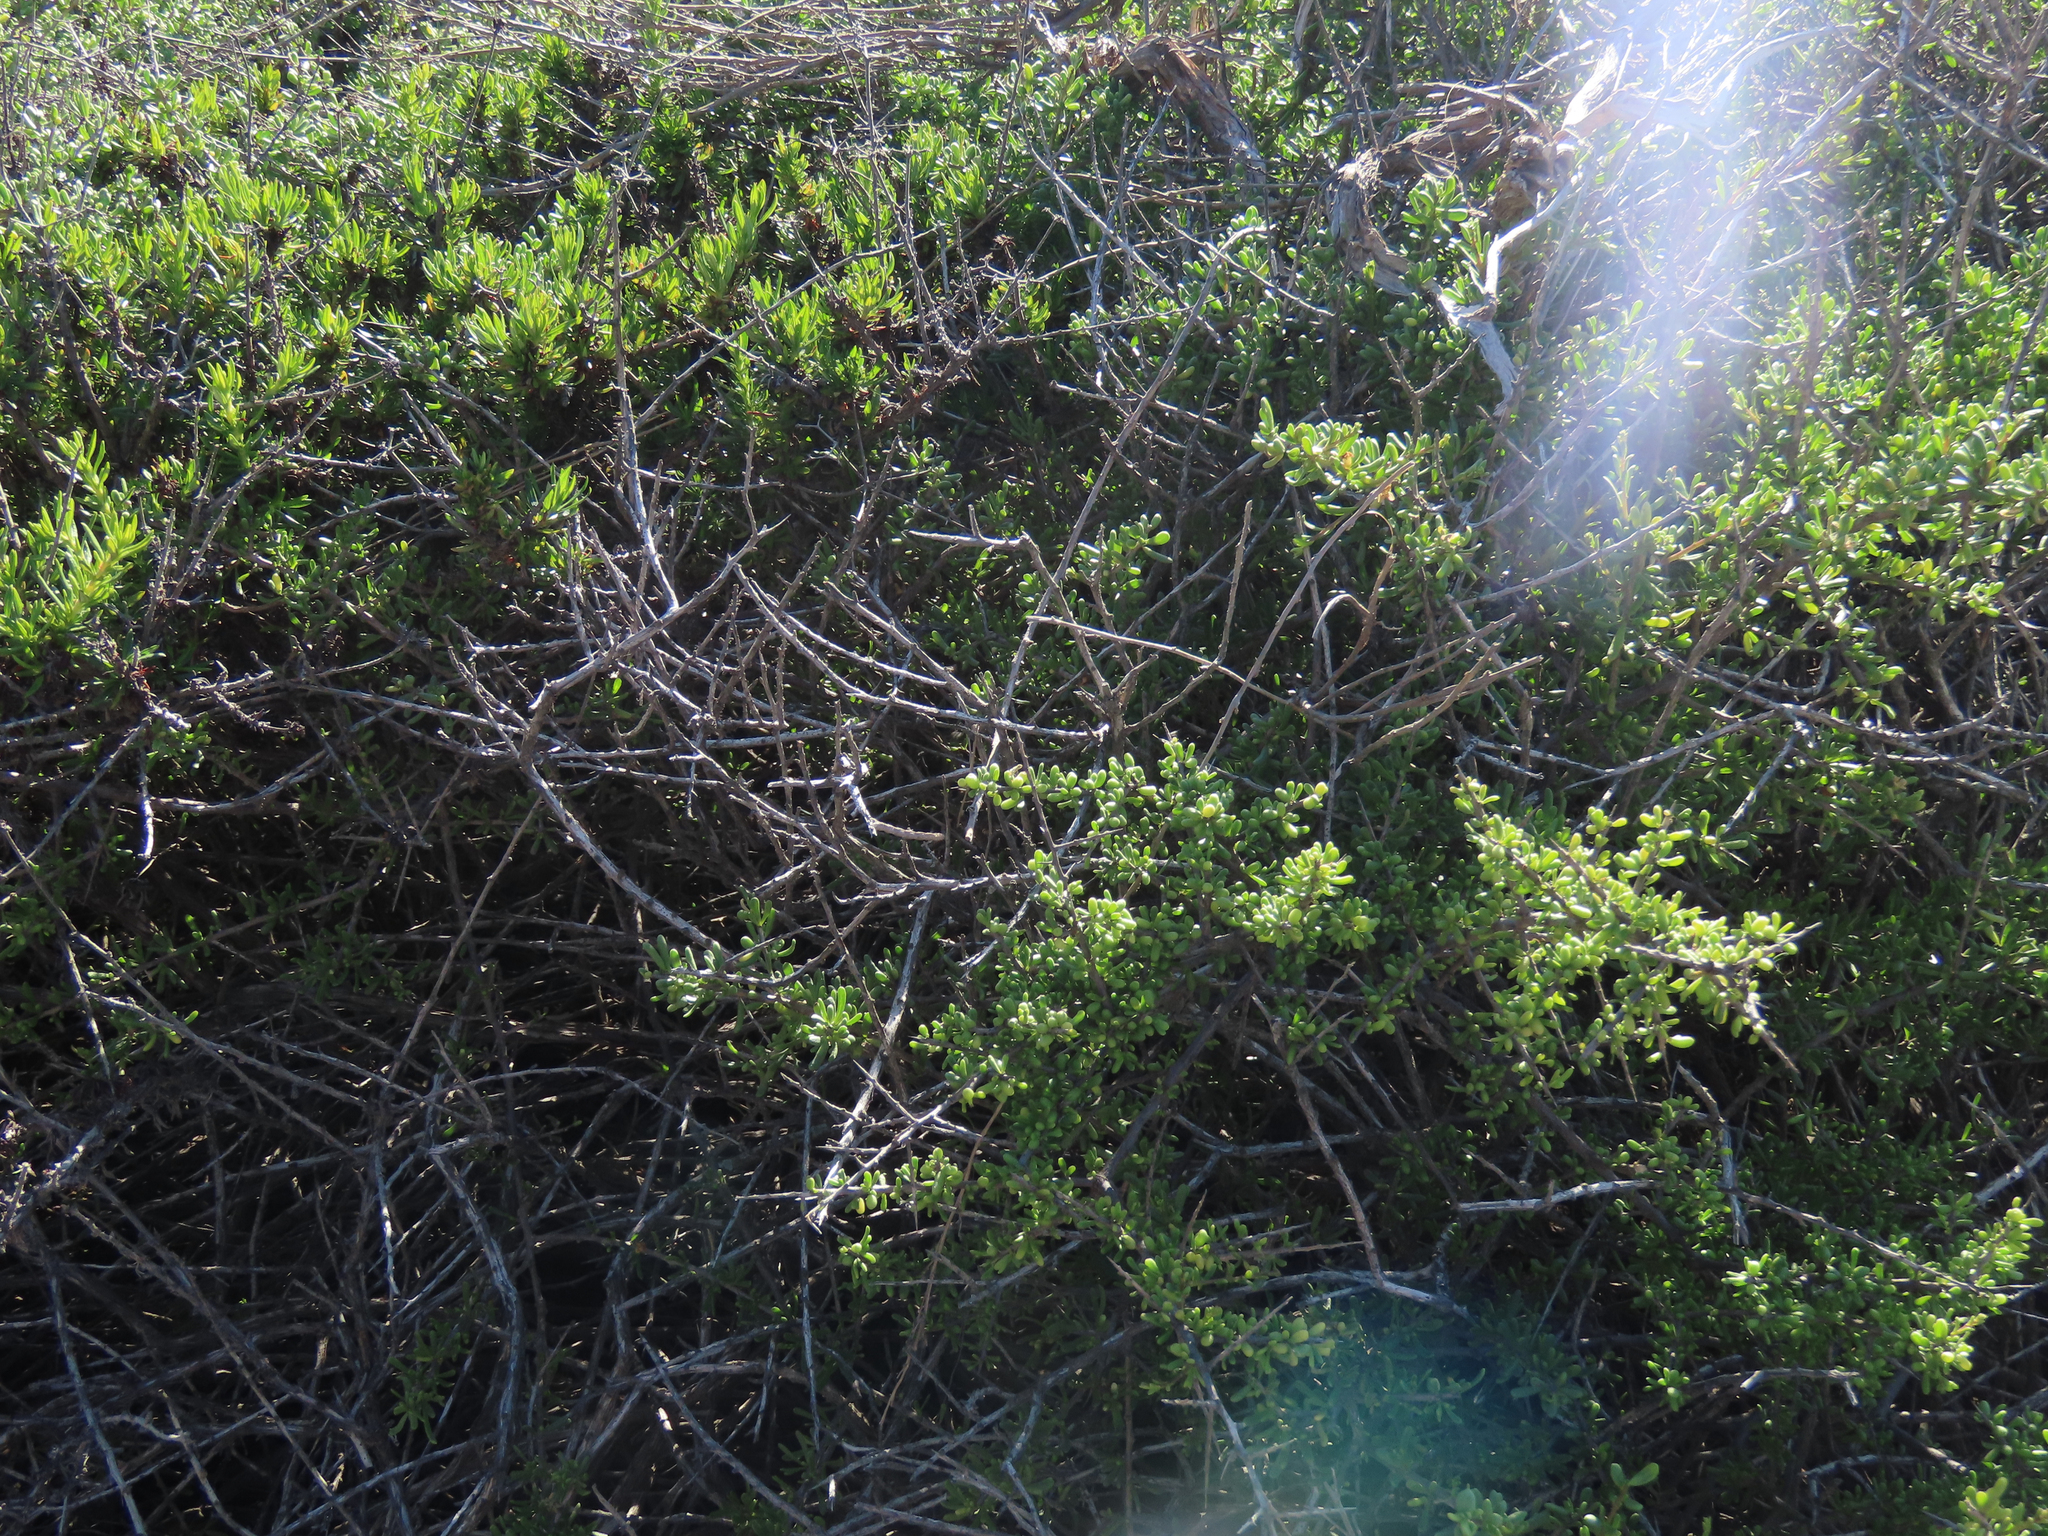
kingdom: Plantae
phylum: Tracheophyta
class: Magnoliopsida
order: Solanales
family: Solanaceae
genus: Lycium
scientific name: Lycium californicum
